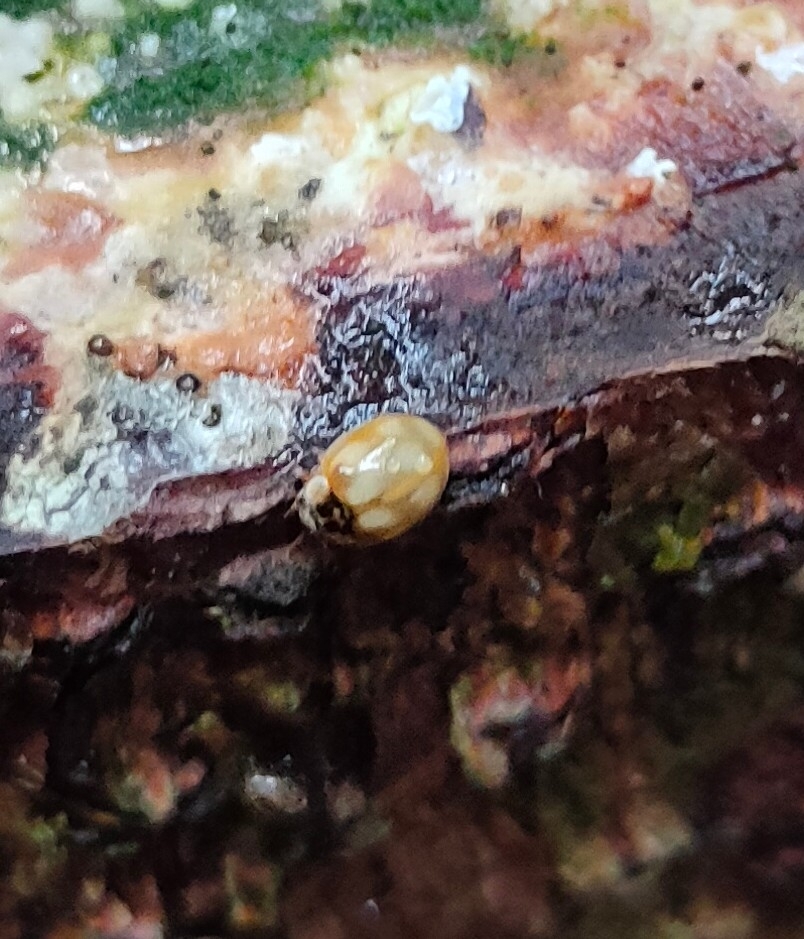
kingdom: Animalia
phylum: Arthropoda
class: Insecta
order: Coleoptera
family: Coccinellidae
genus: Adalia
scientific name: Adalia decempunctata
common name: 10-spot ladybird
